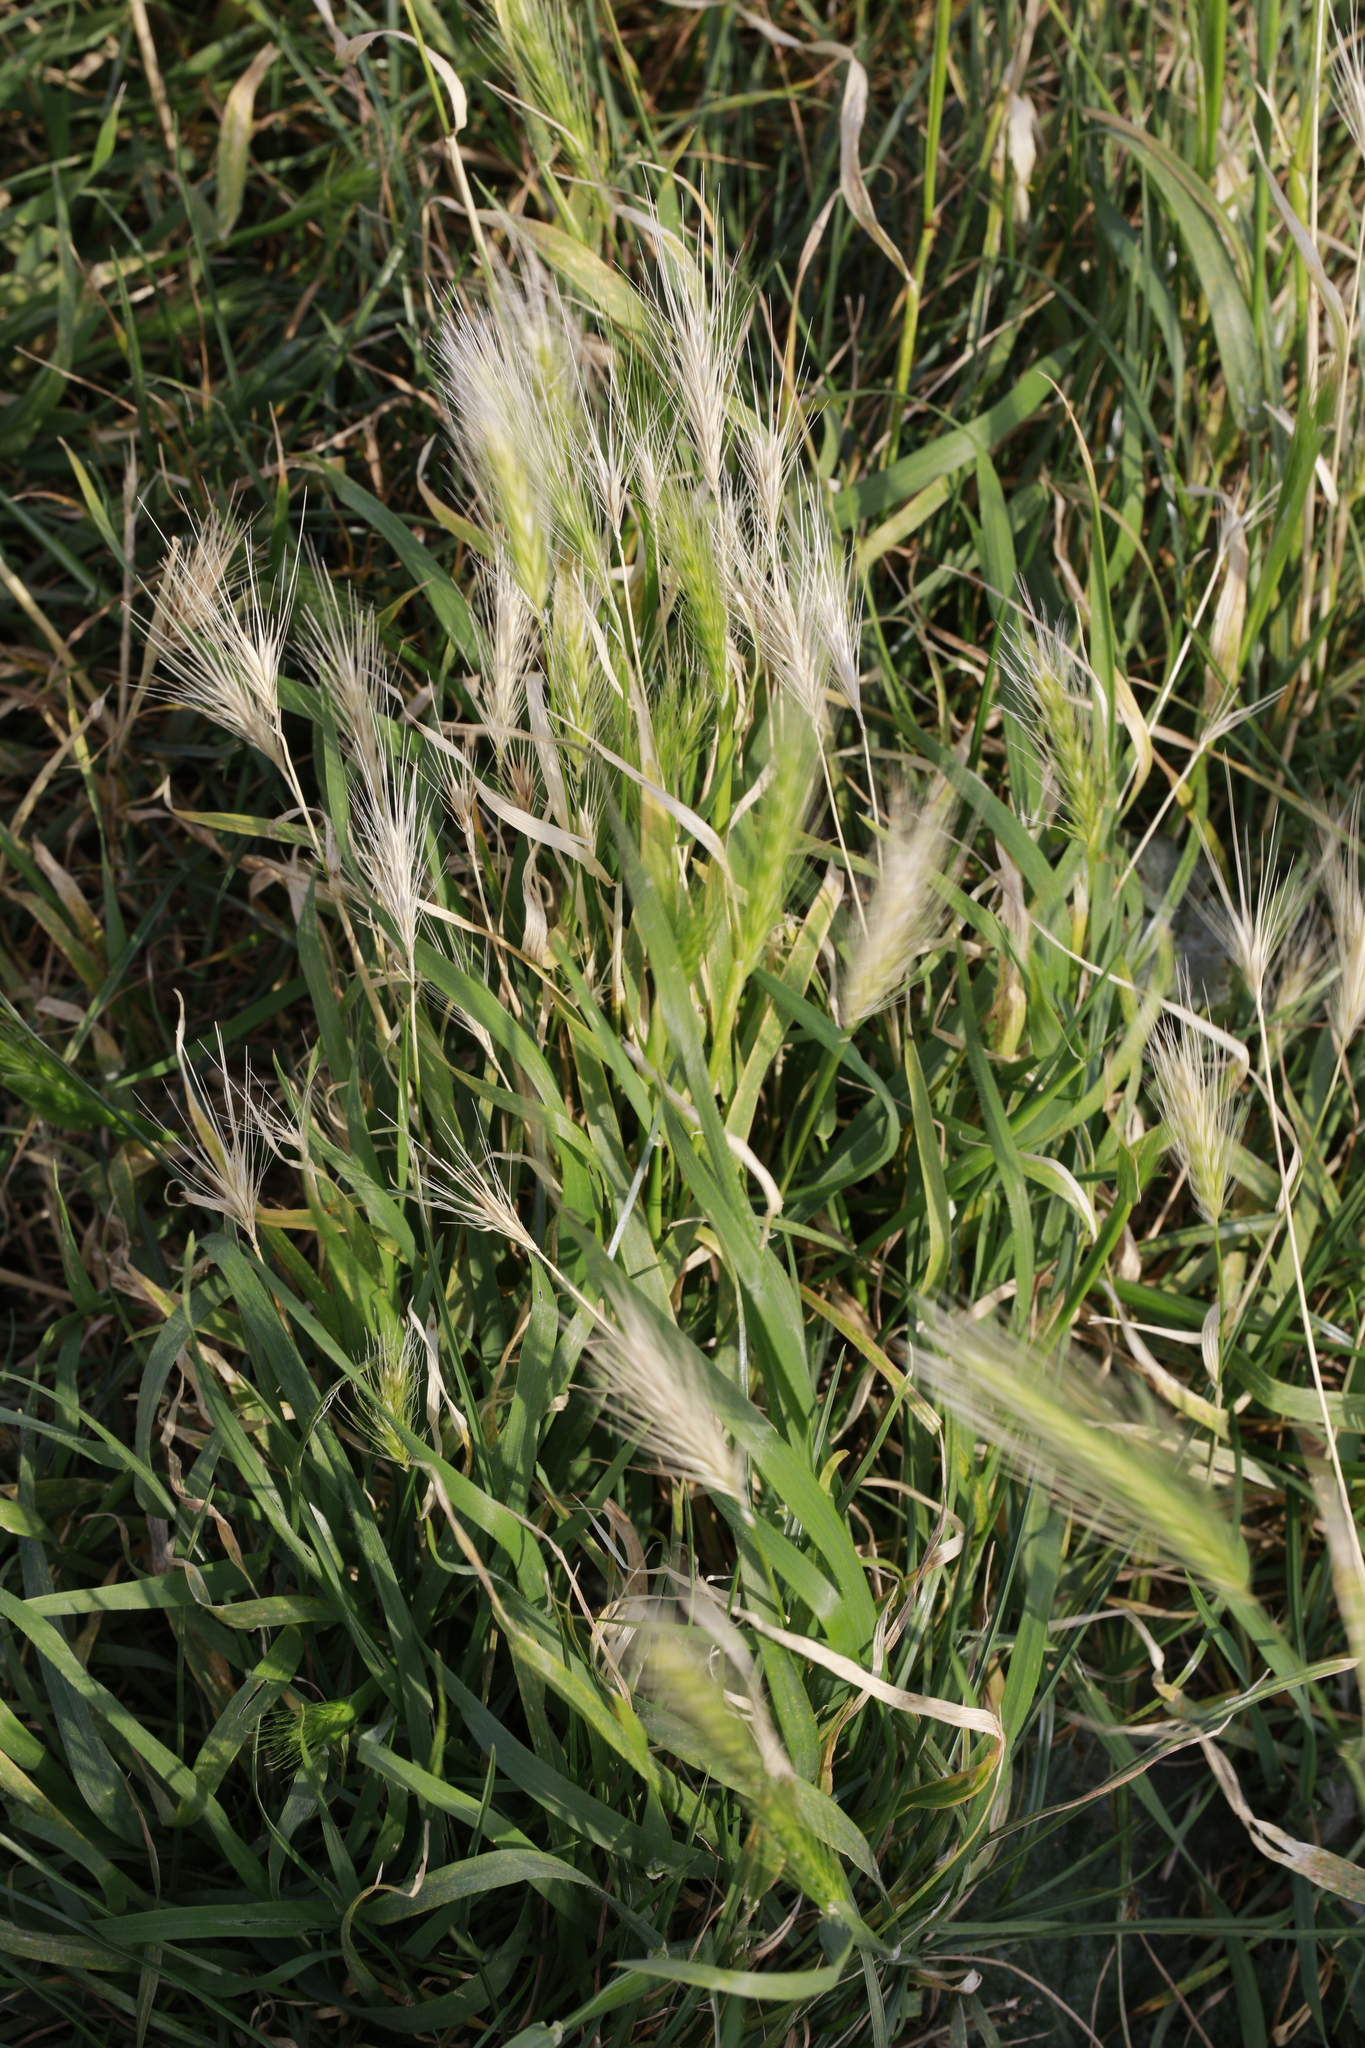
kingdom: Plantae
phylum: Tracheophyta
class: Liliopsida
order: Poales
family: Poaceae
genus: Hordeum
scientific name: Hordeum murinum
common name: Wall barley
